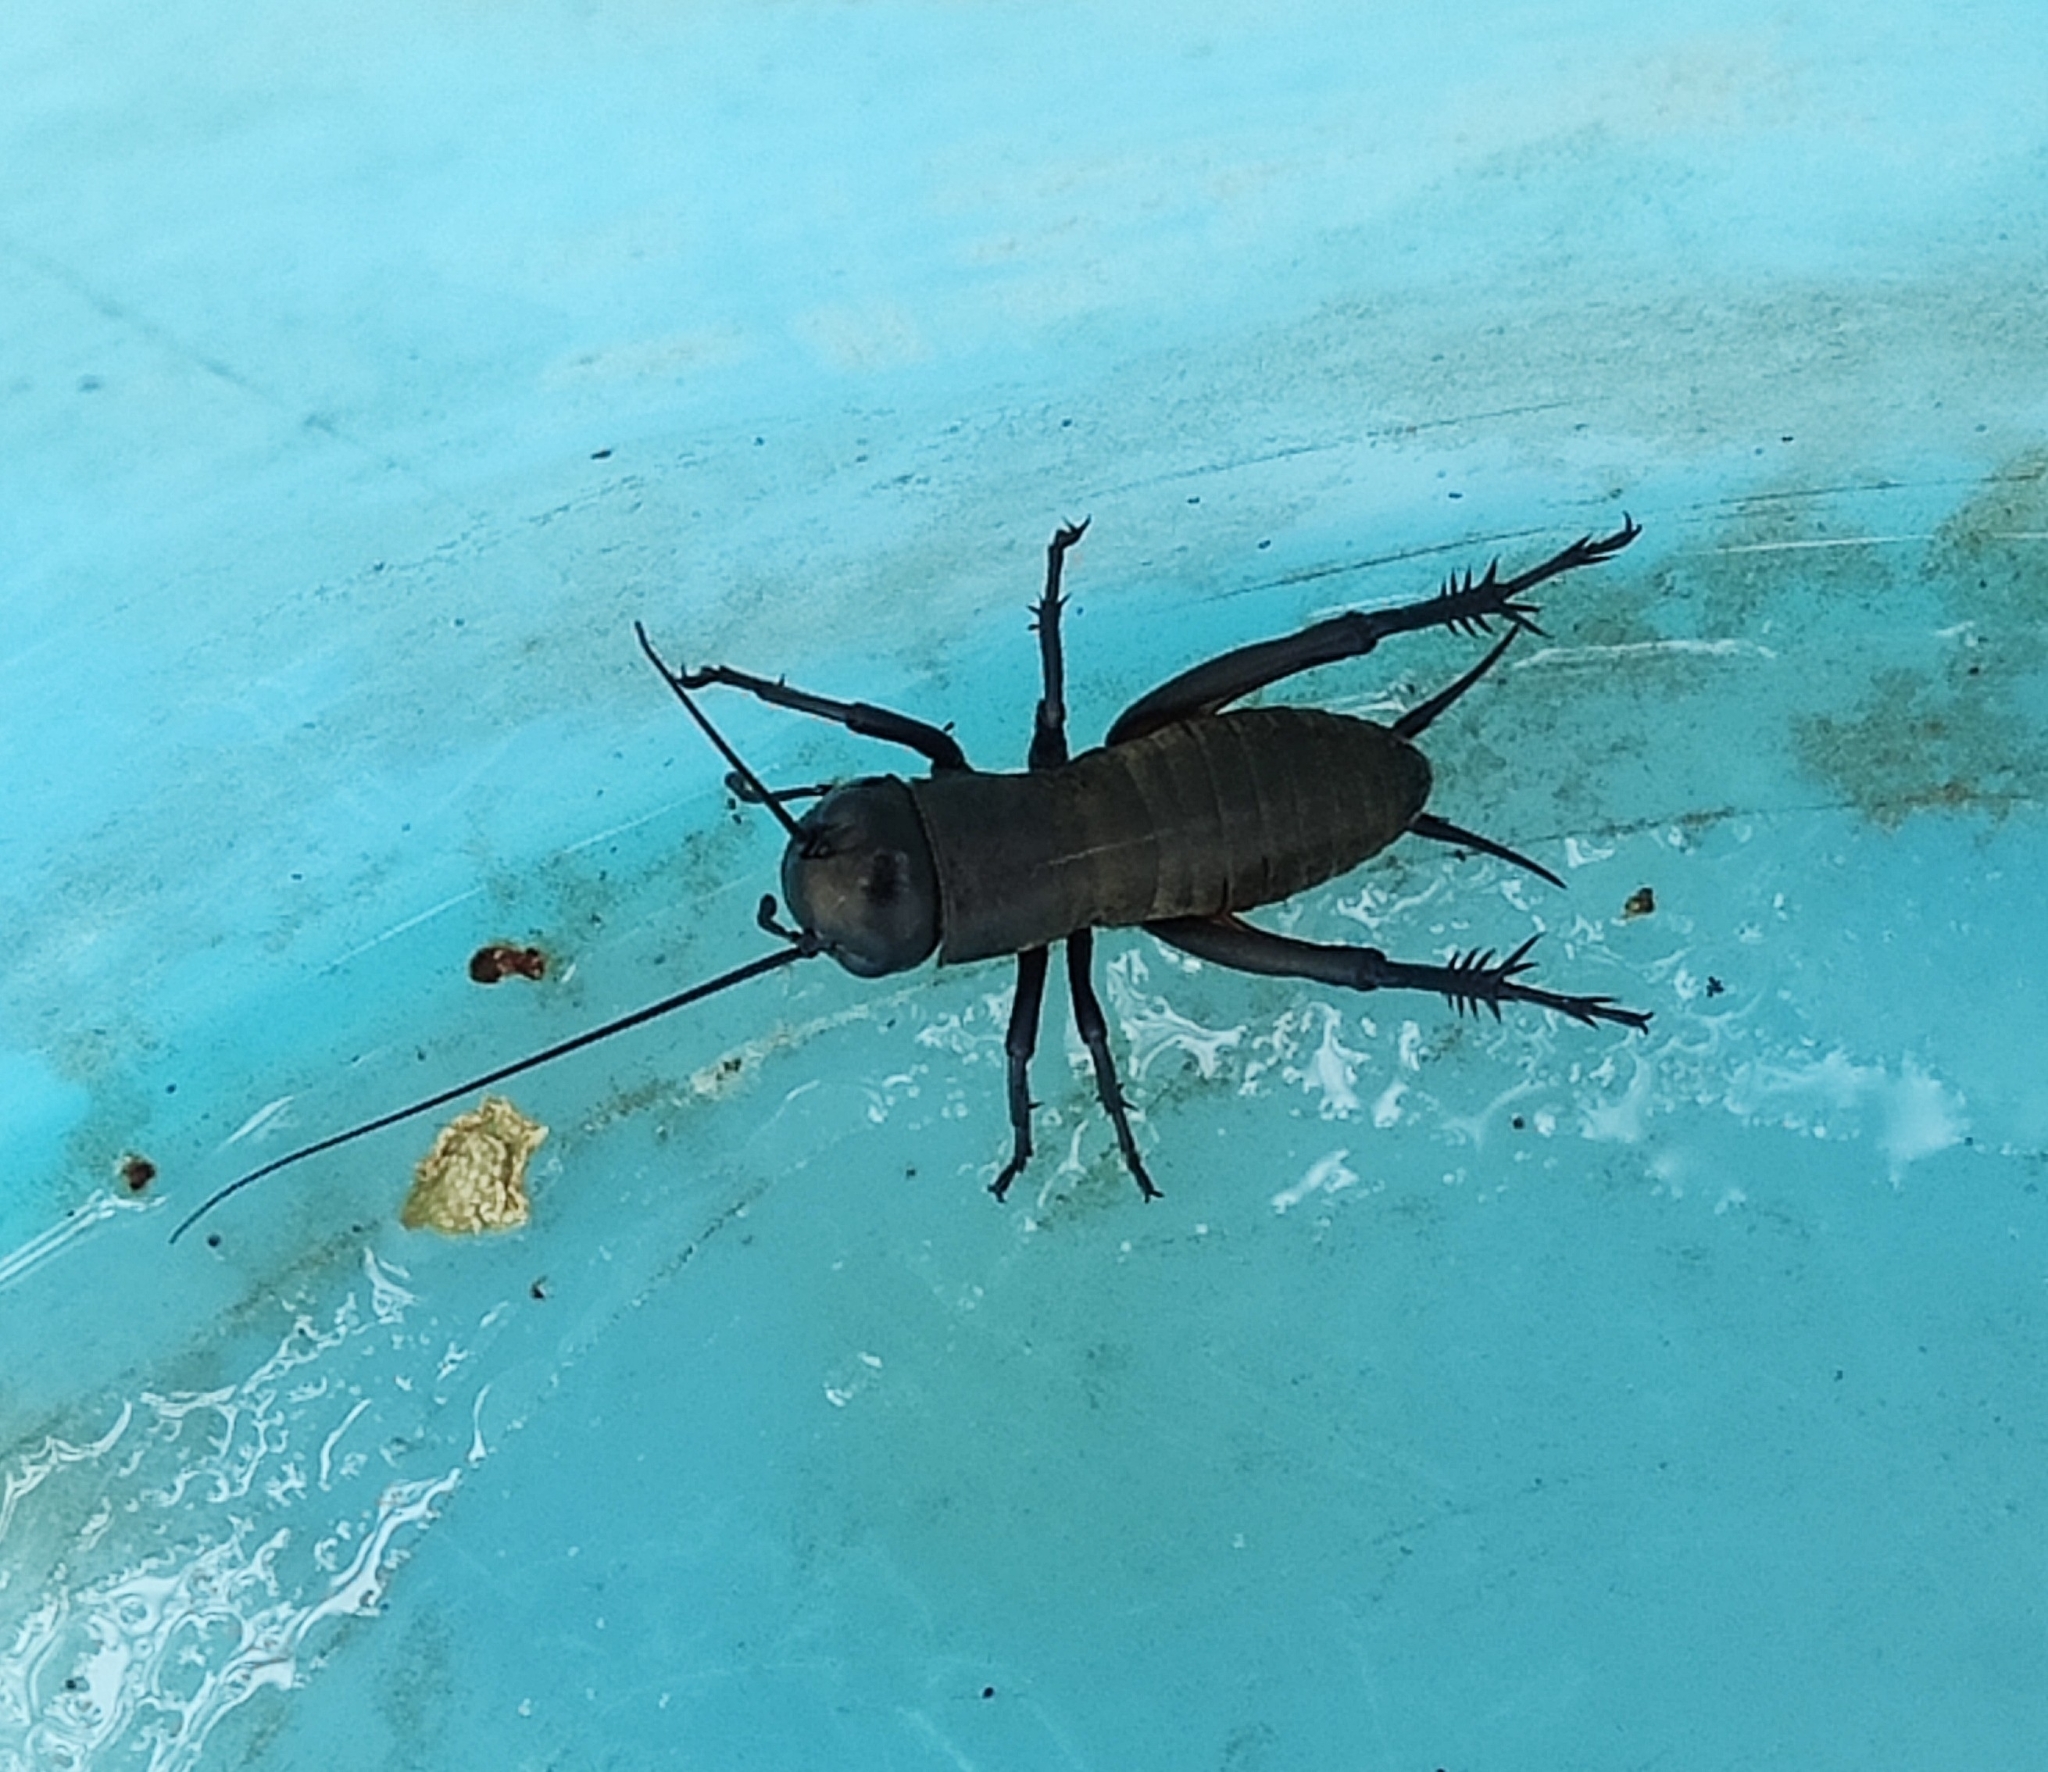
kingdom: Animalia
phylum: Arthropoda
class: Insecta
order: Orthoptera
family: Gryllidae
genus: Gryllus
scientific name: Gryllus campestris
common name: Field cricket
